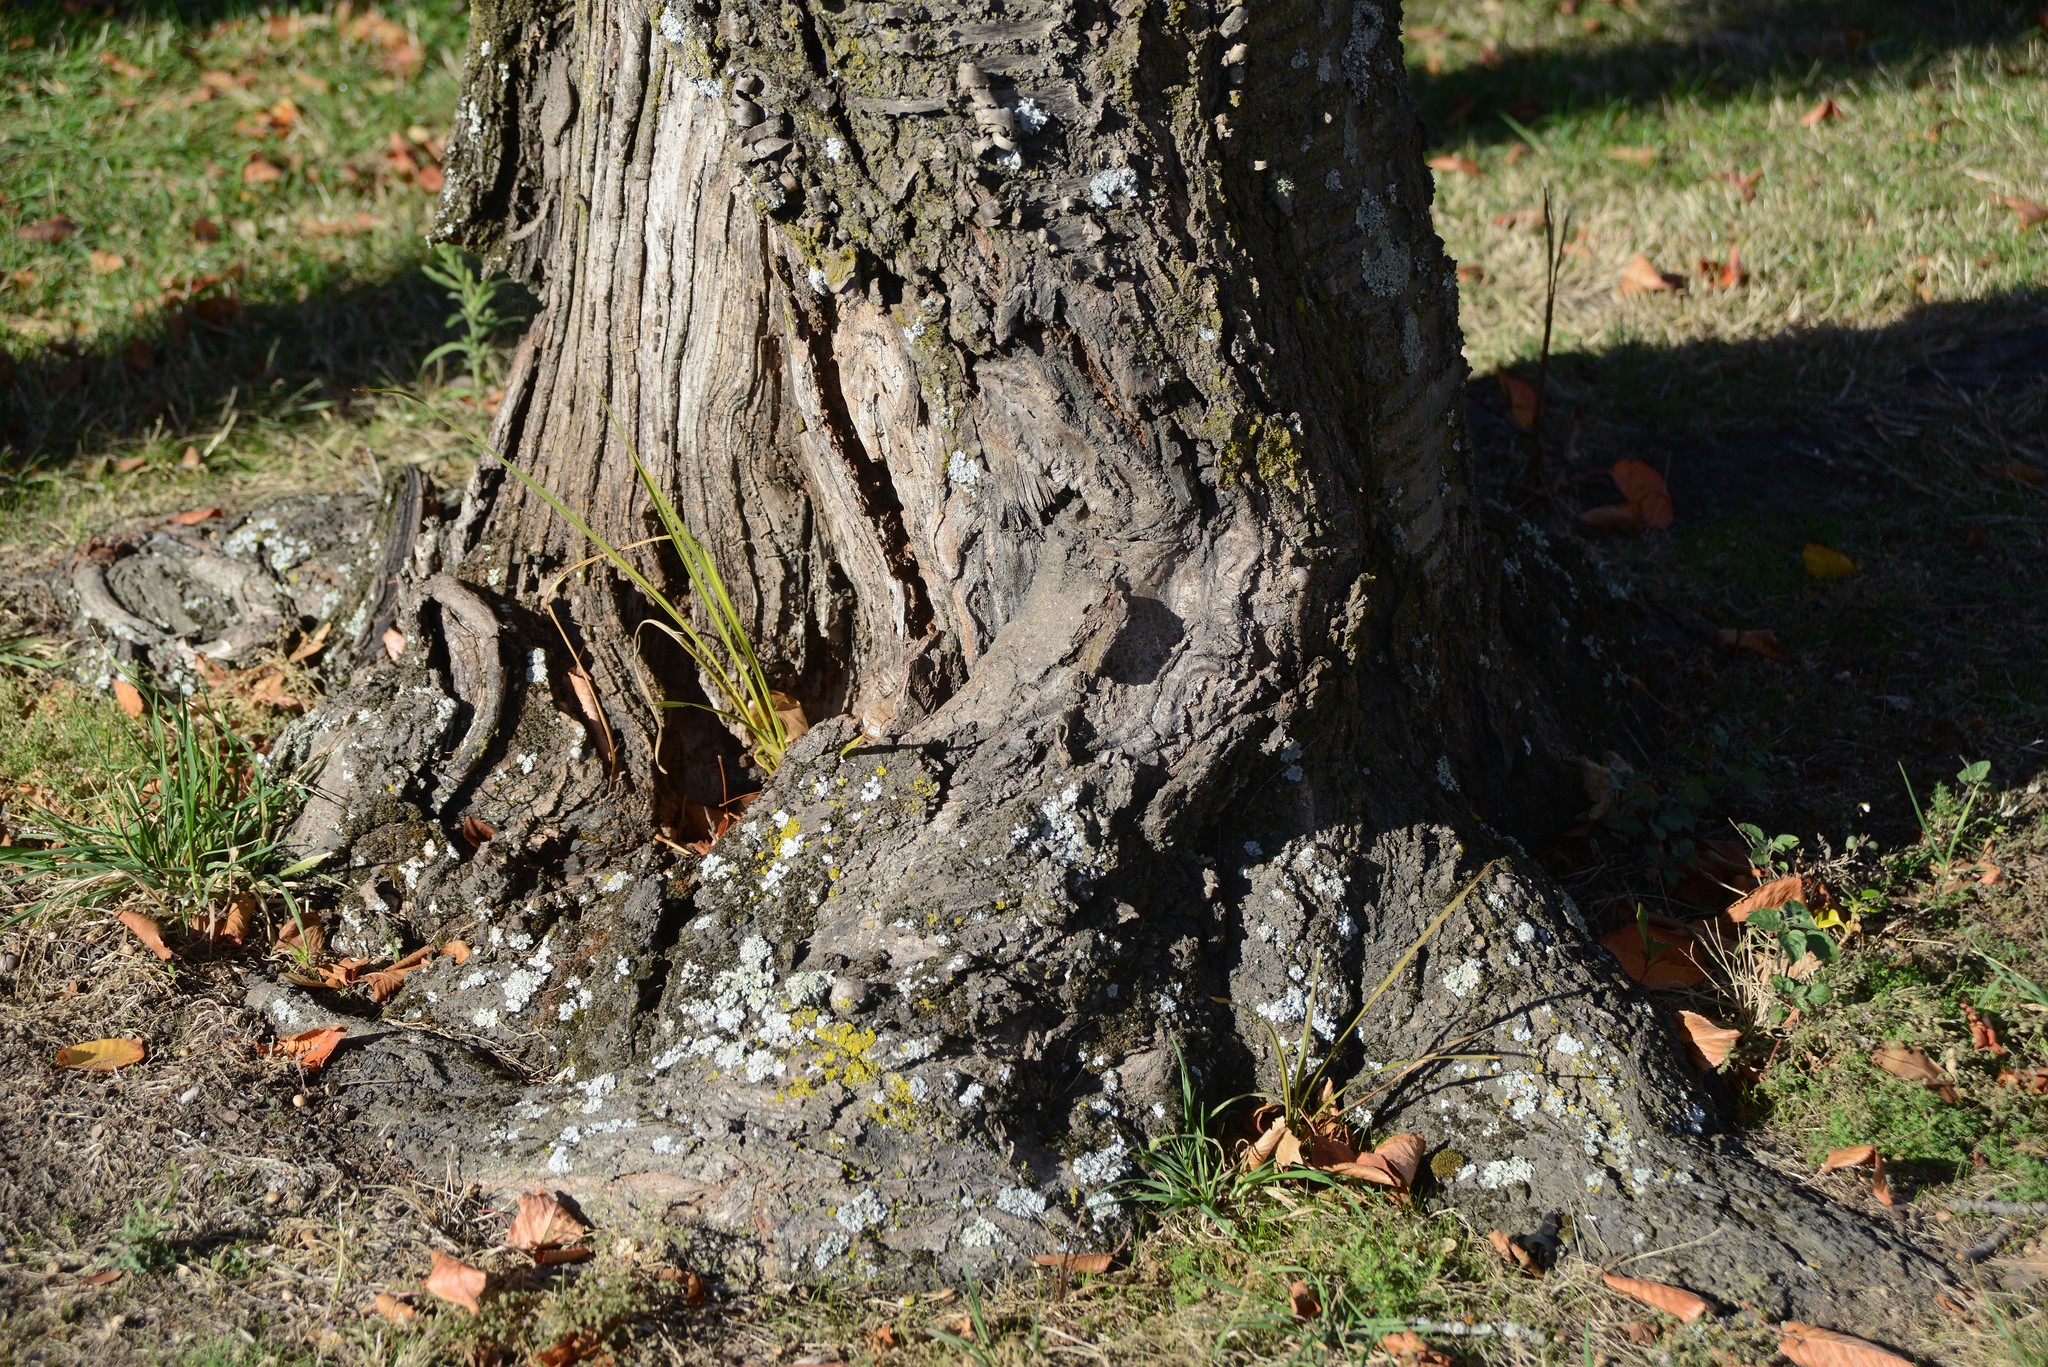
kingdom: Plantae
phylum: Tracheophyta
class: Liliopsida
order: Asparagales
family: Asparagaceae
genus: Cordyline
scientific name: Cordyline australis
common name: Cabbage-palm
